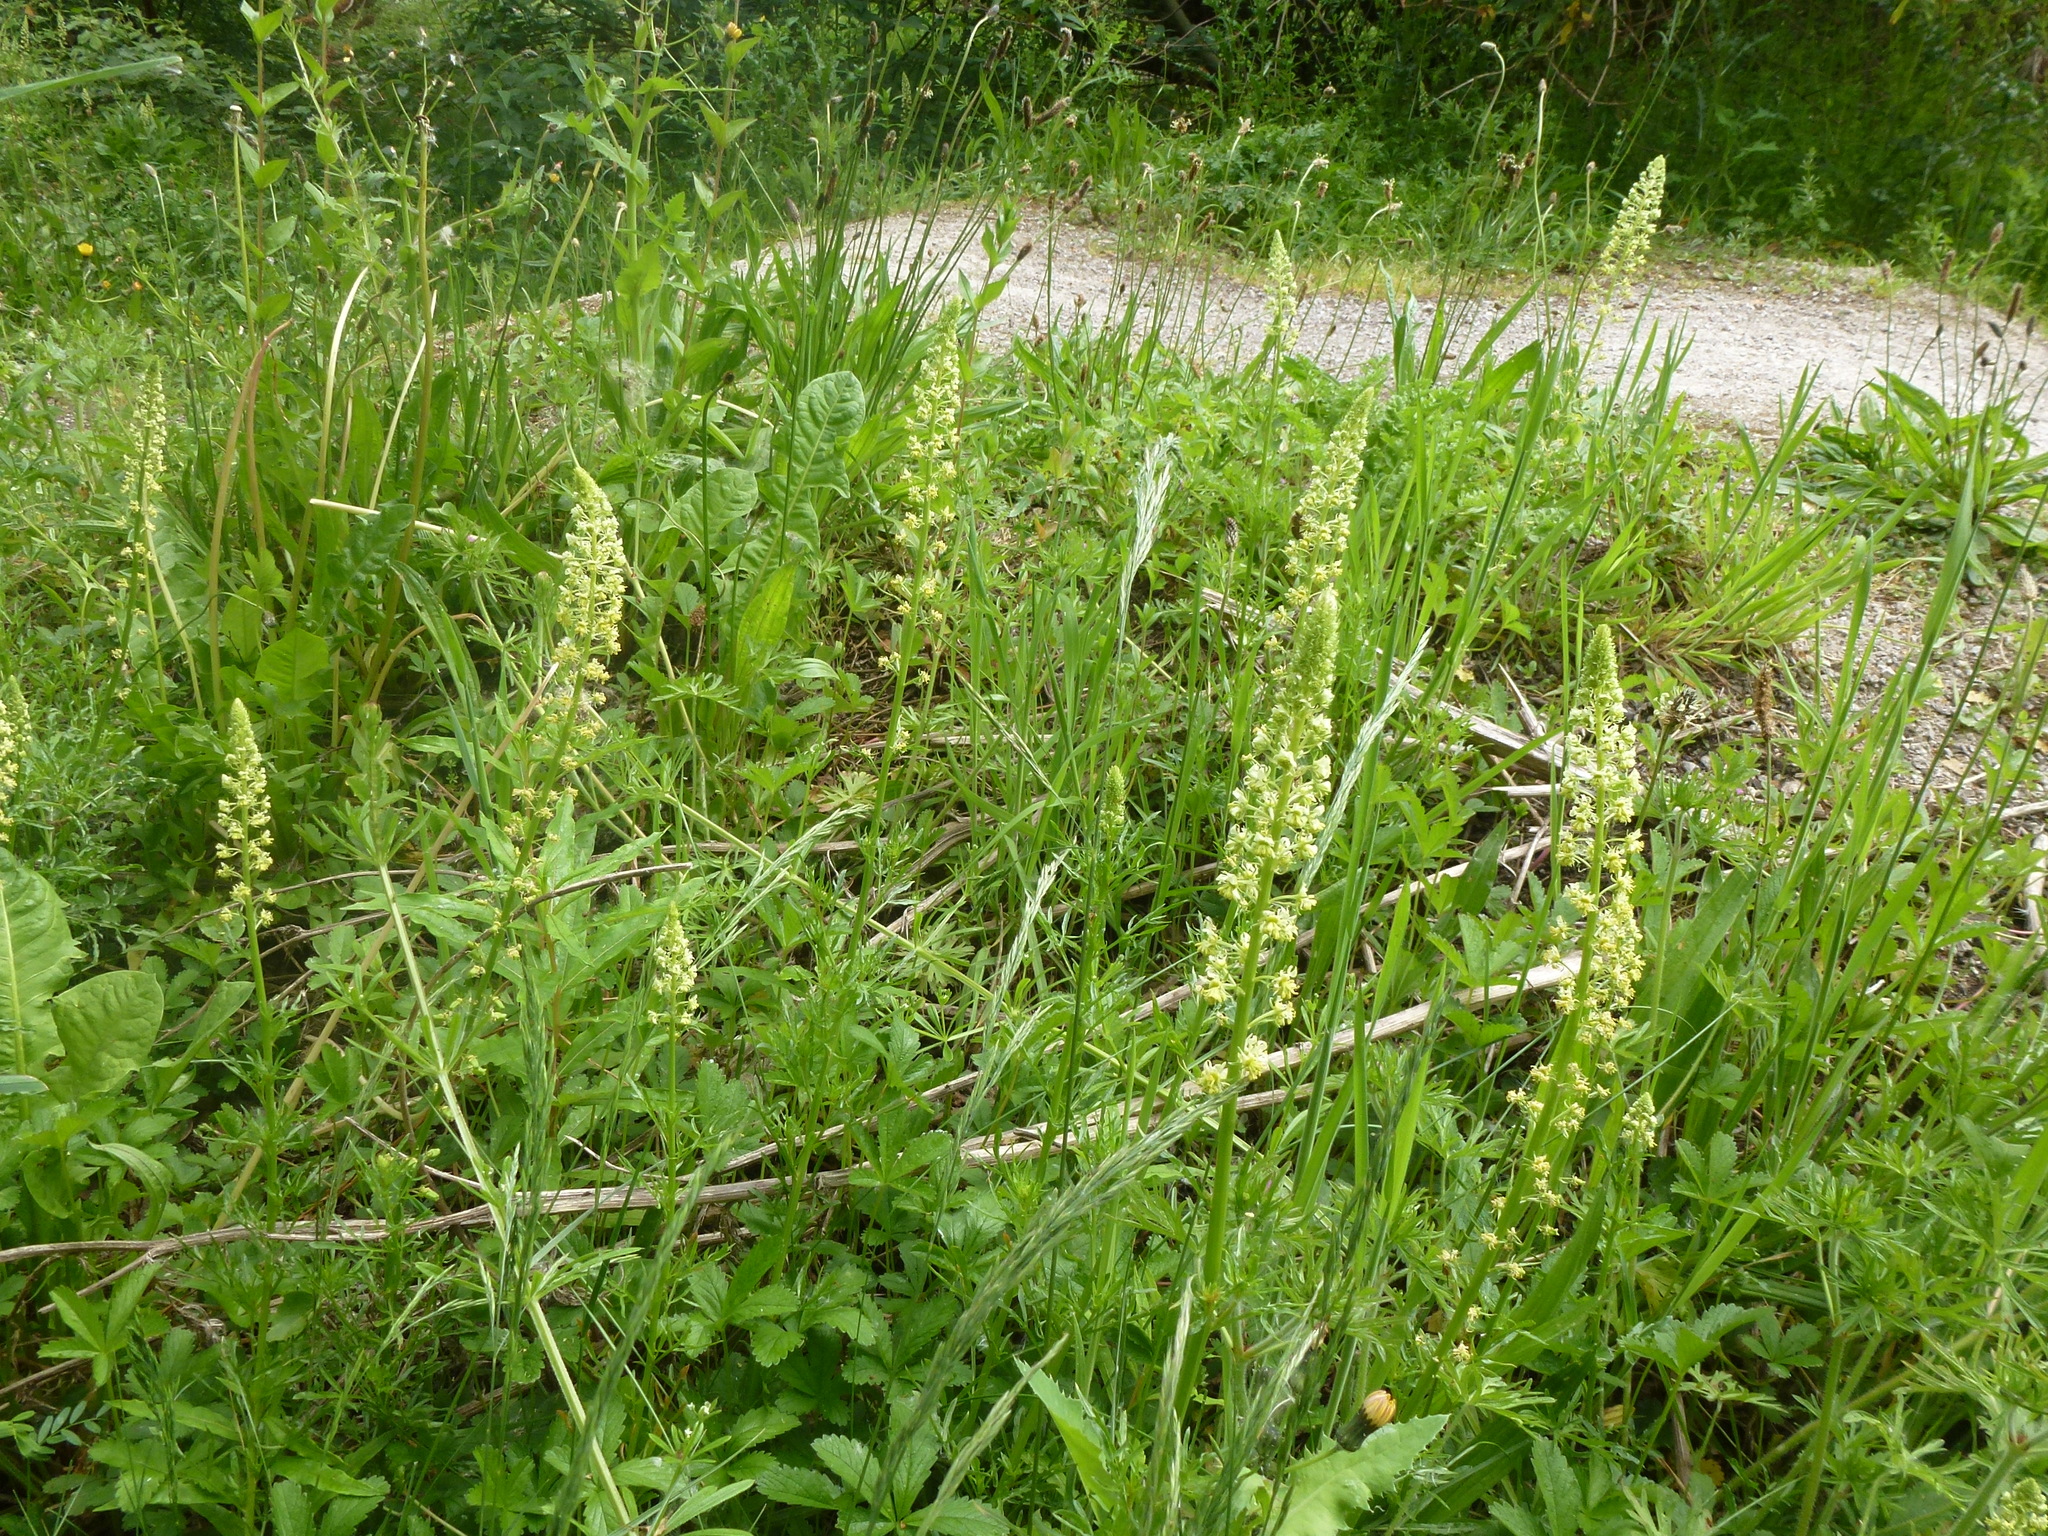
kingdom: Plantae
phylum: Tracheophyta
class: Magnoliopsida
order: Brassicales
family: Resedaceae
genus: Reseda
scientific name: Reseda luteola
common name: Weld
